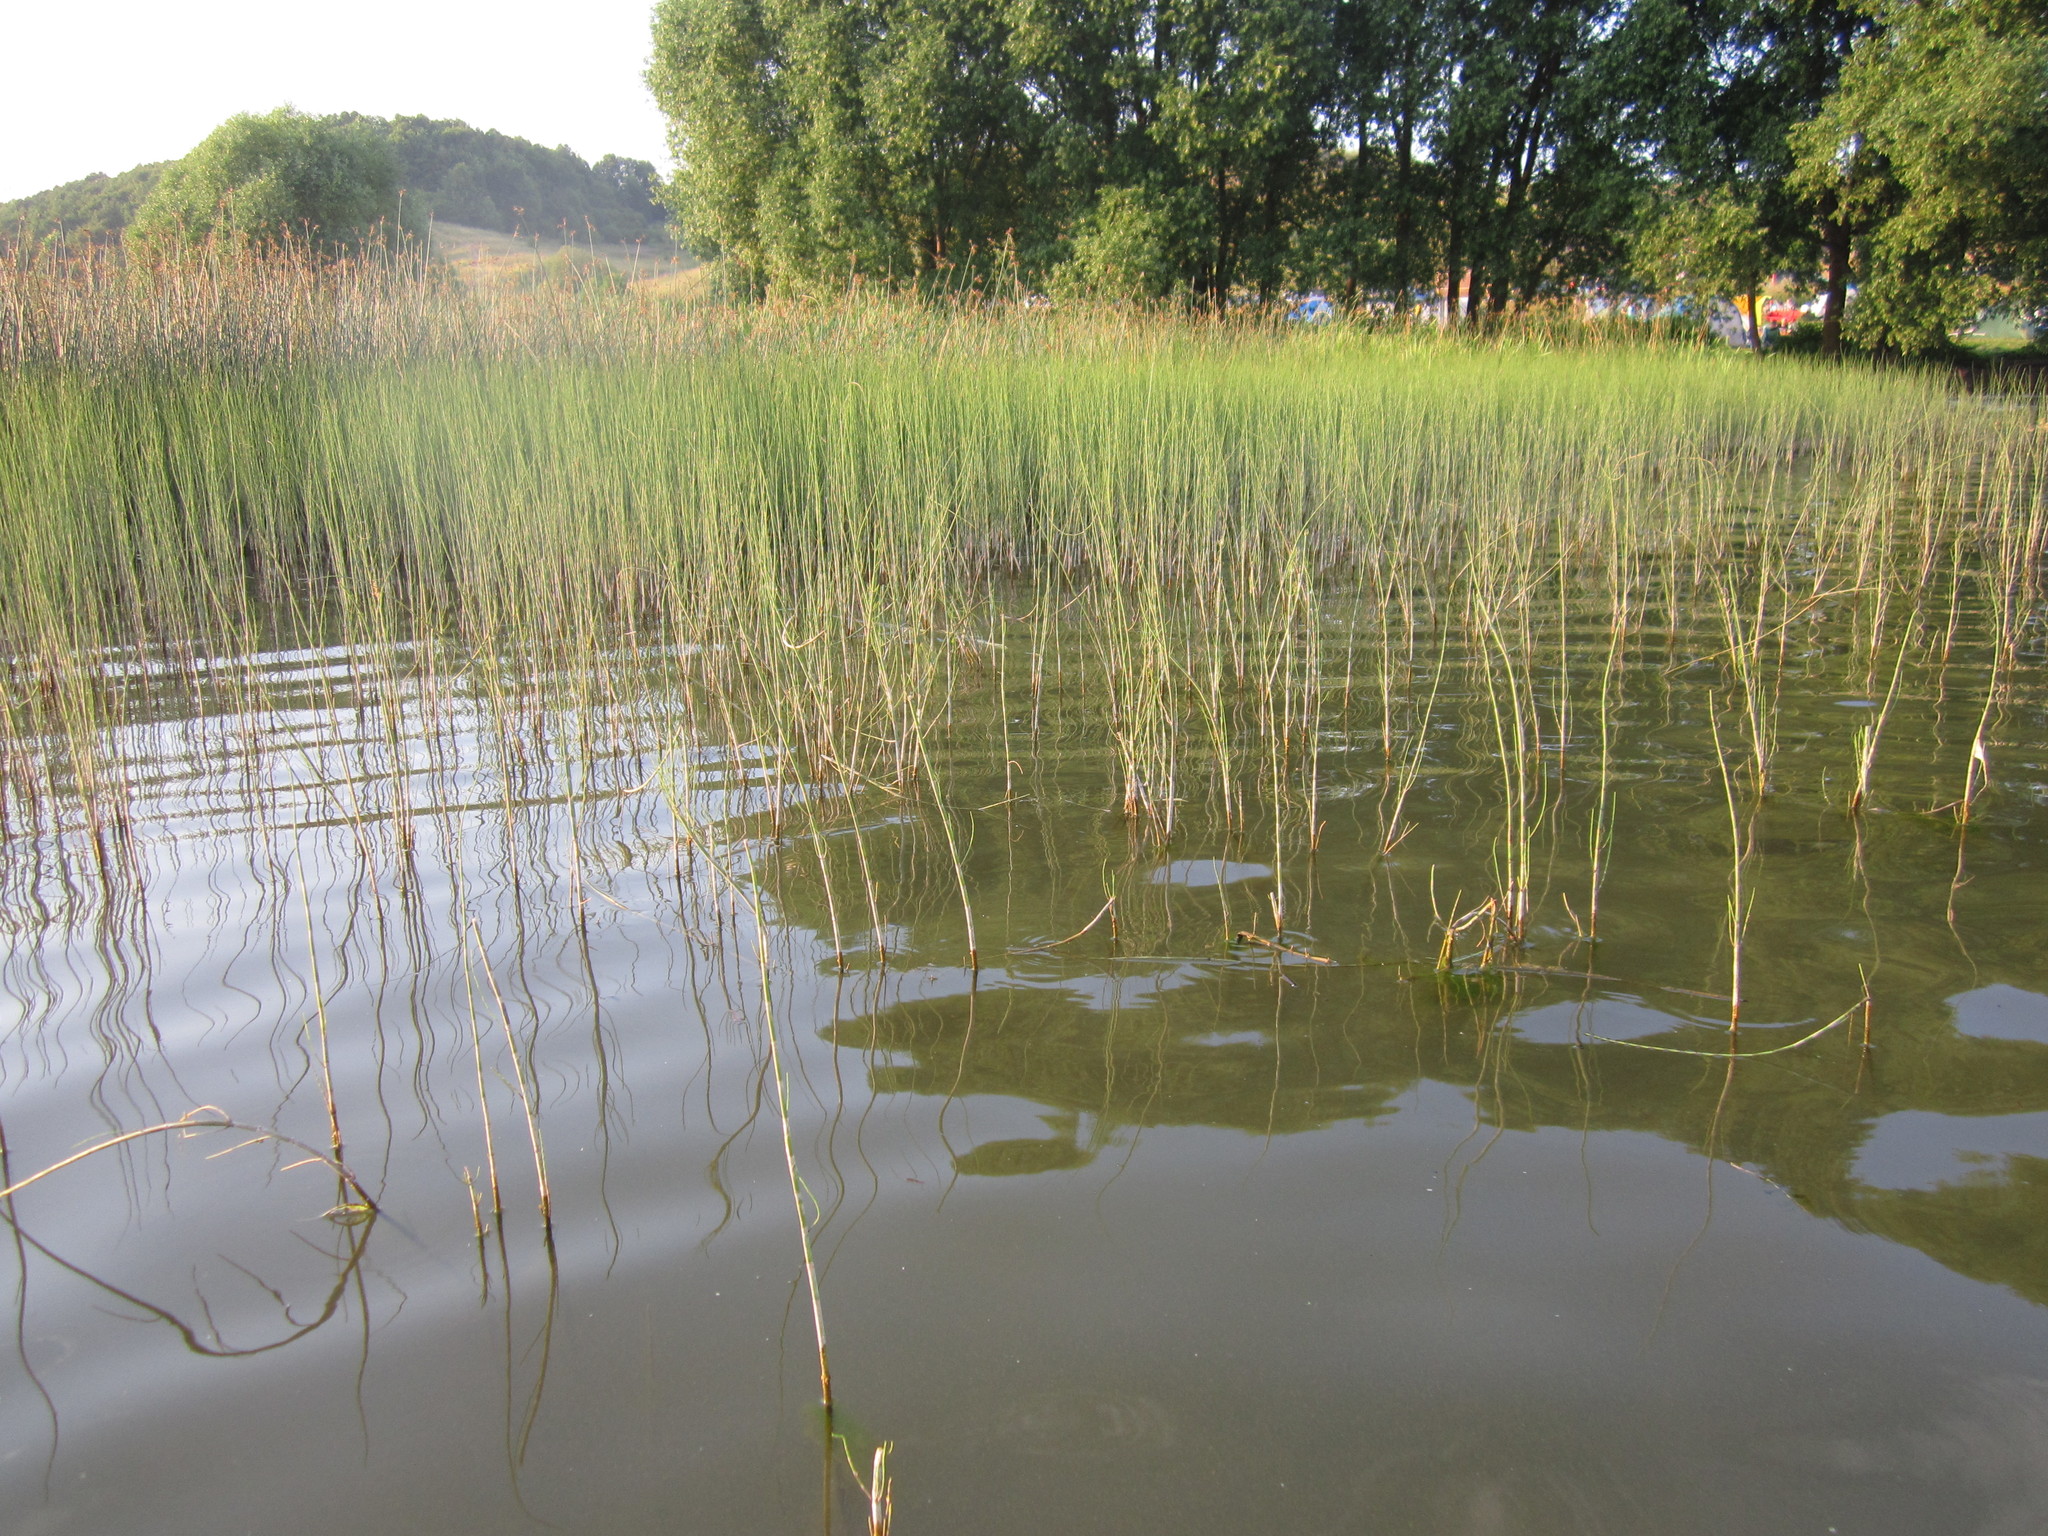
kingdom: Plantae
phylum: Tracheophyta
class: Polypodiopsida
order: Equisetales
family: Equisetaceae
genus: Equisetum
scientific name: Equisetum fluviatile
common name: Water horsetail
